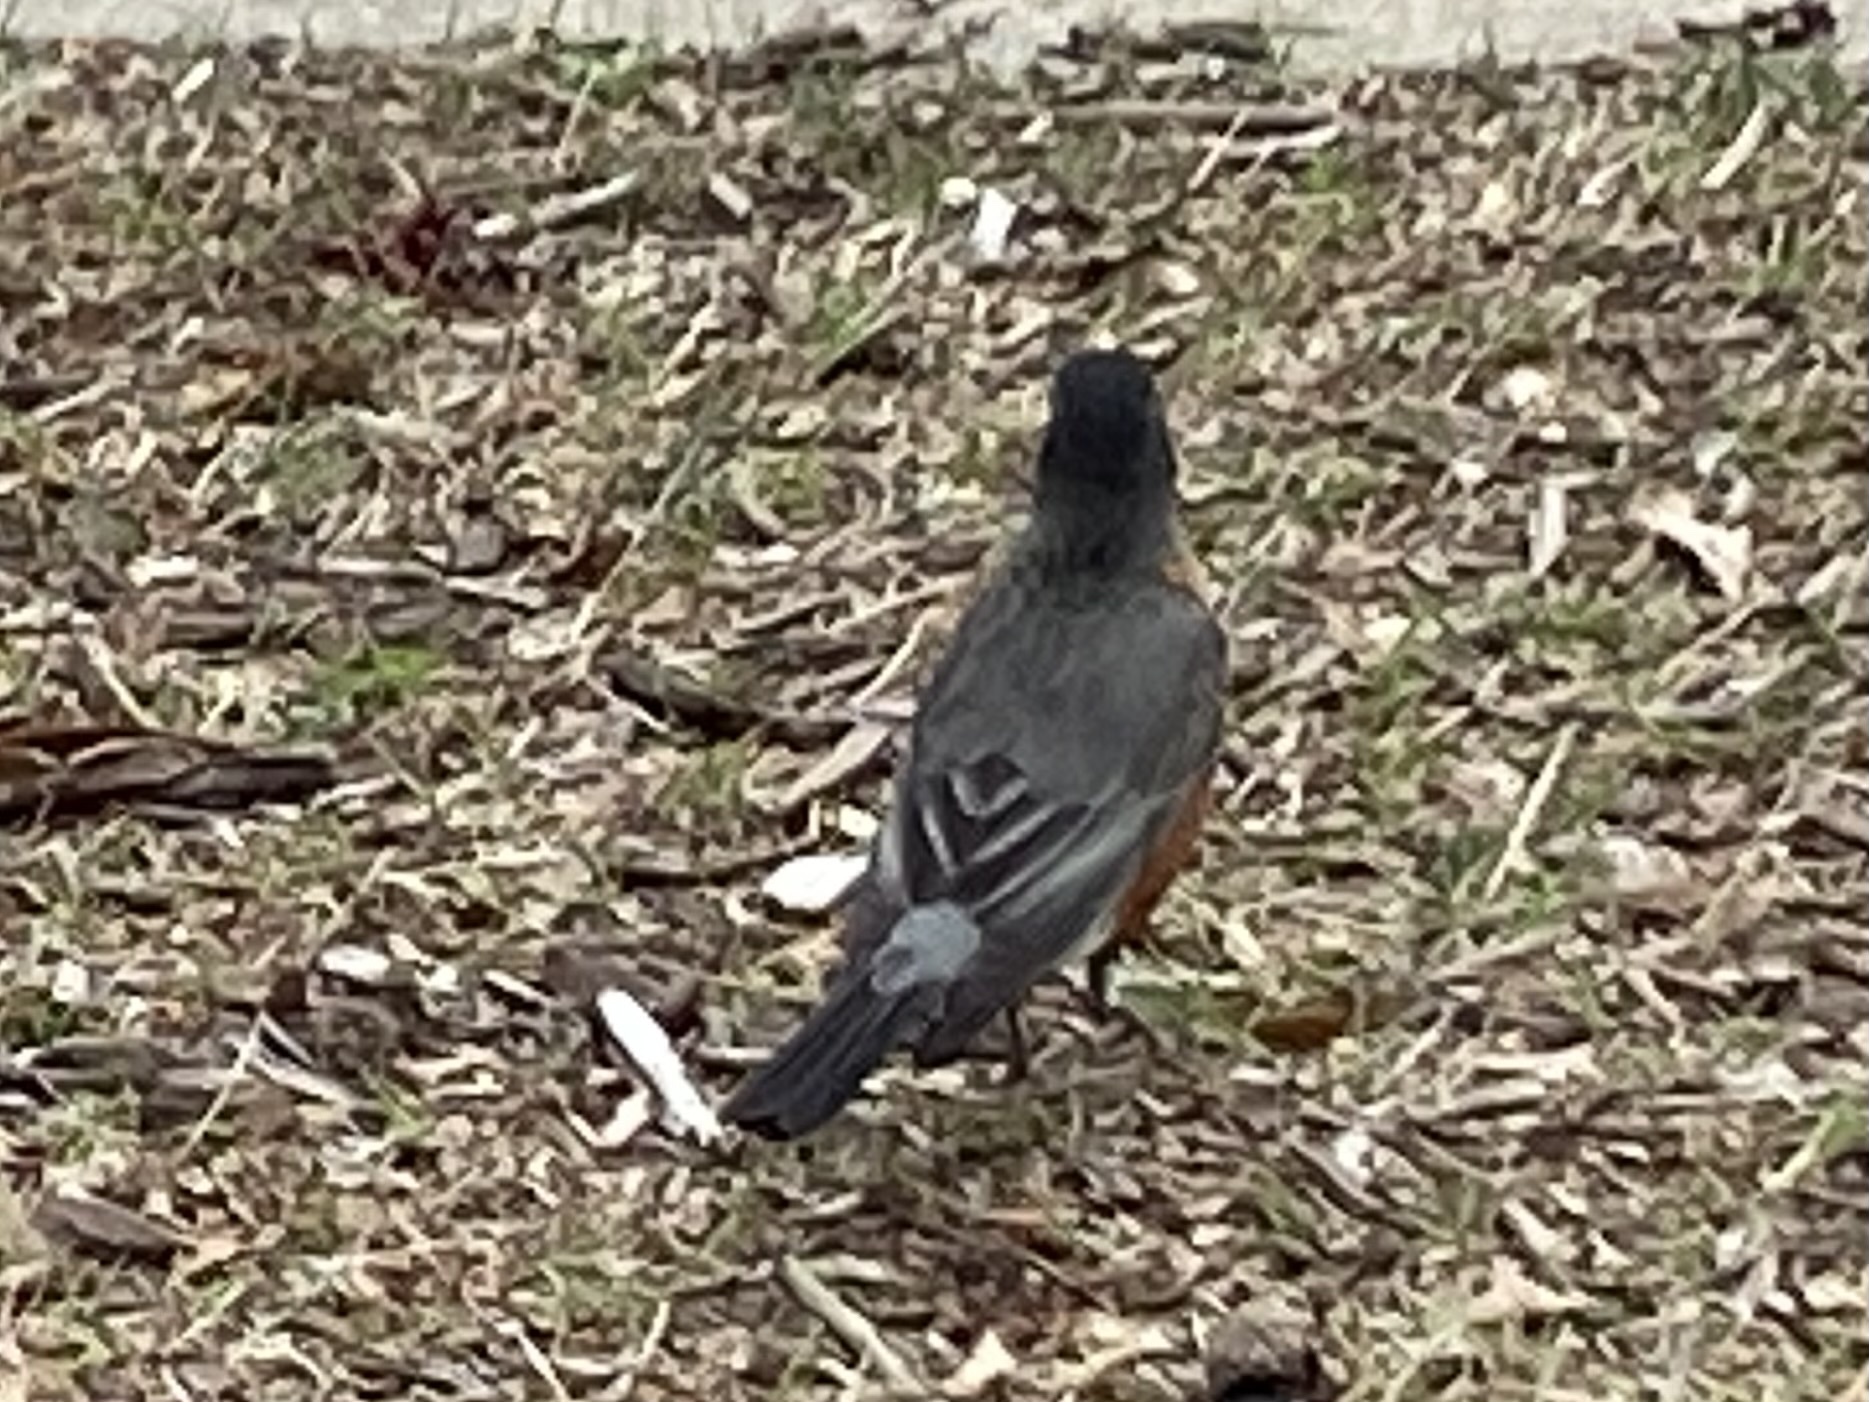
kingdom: Animalia
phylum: Chordata
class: Aves
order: Passeriformes
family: Turdidae
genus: Turdus
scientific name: Turdus migratorius
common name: American robin
